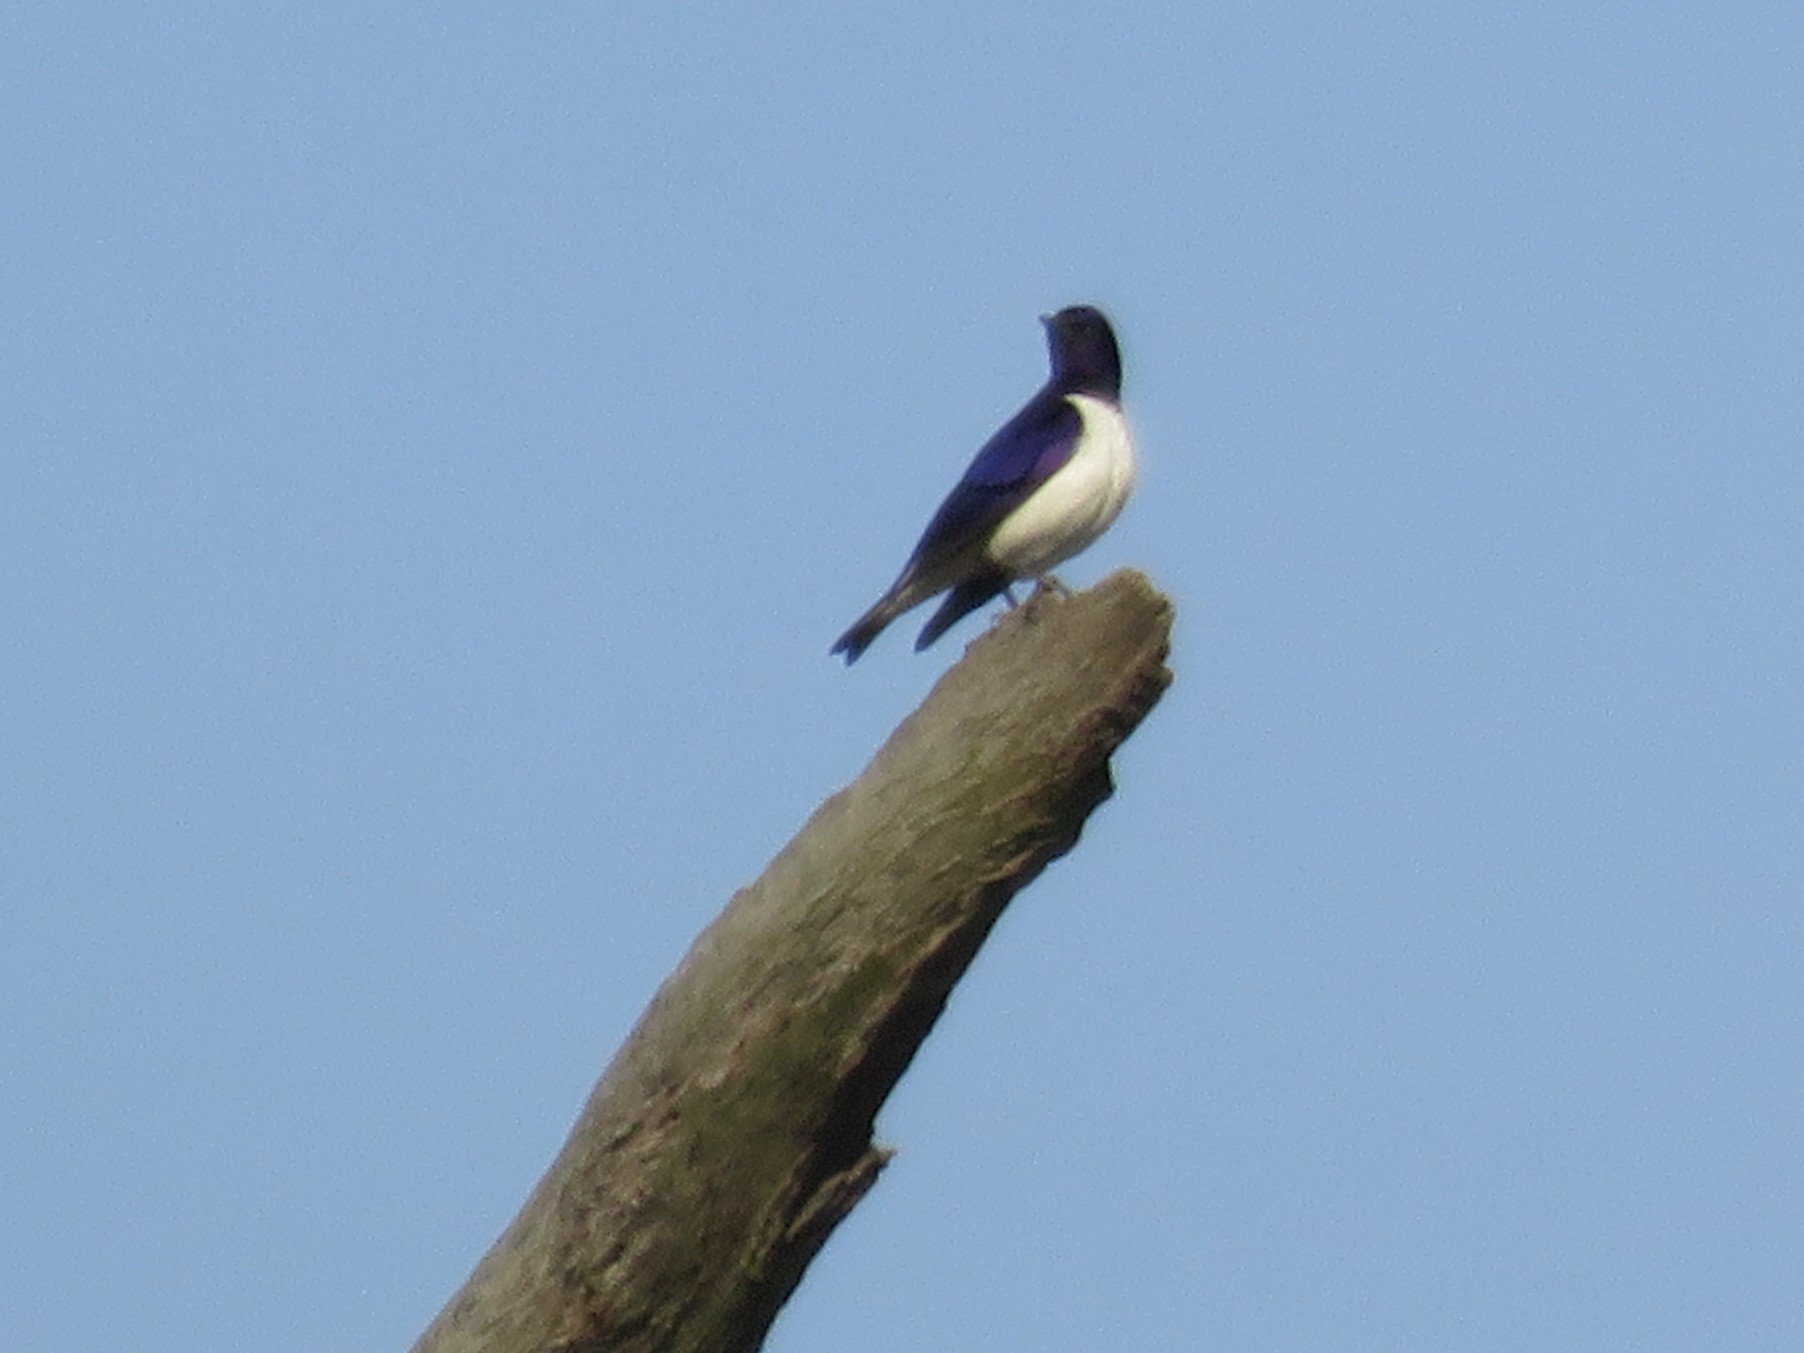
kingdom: Animalia
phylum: Chordata
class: Aves
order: Passeriformes
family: Sturnidae
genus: Cinnyricinclus
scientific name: Cinnyricinclus leucogaster
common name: Violet-backed starling
